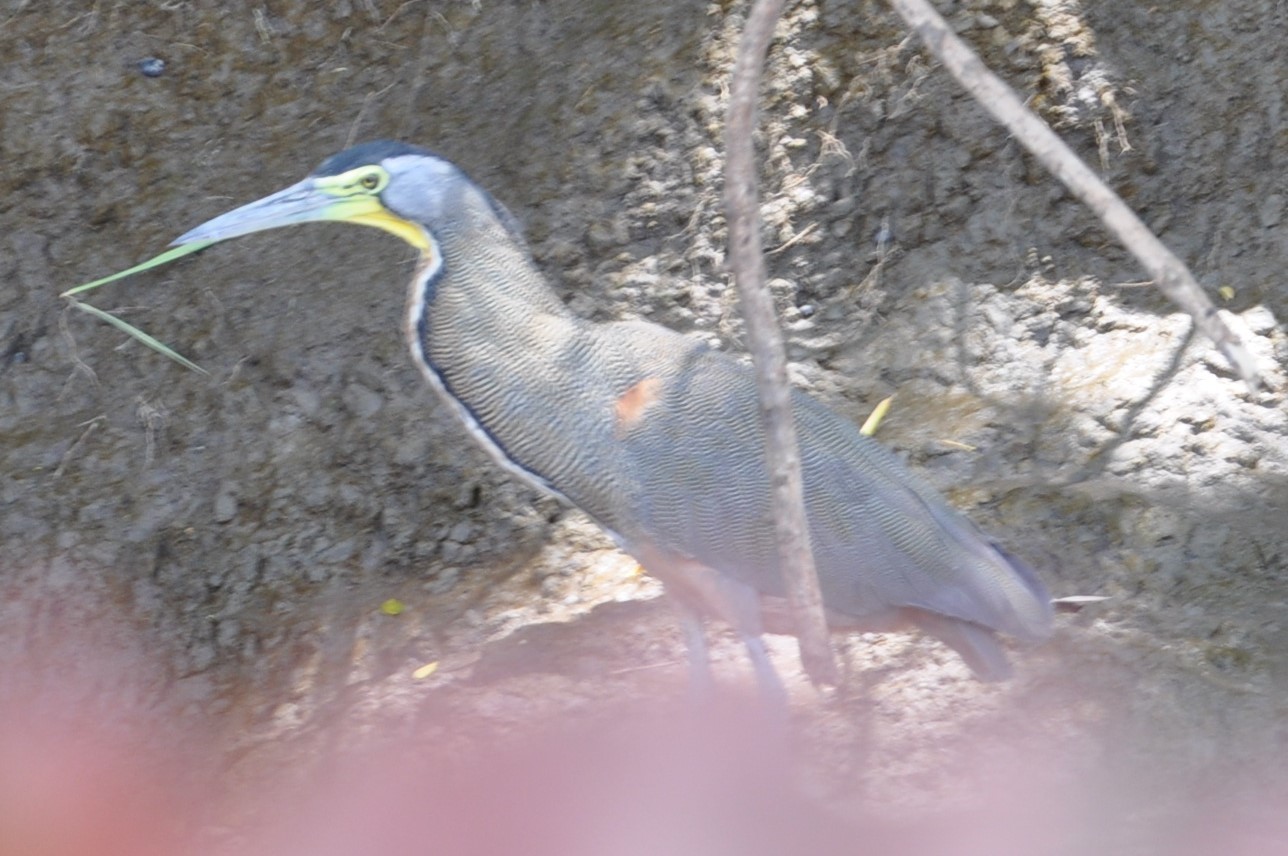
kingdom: Animalia
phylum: Chordata
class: Aves
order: Pelecaniformes
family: Ardeidae
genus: Tigrisoma
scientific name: Tigrisoma mexicanum
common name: Bare-throated tiger-heron
